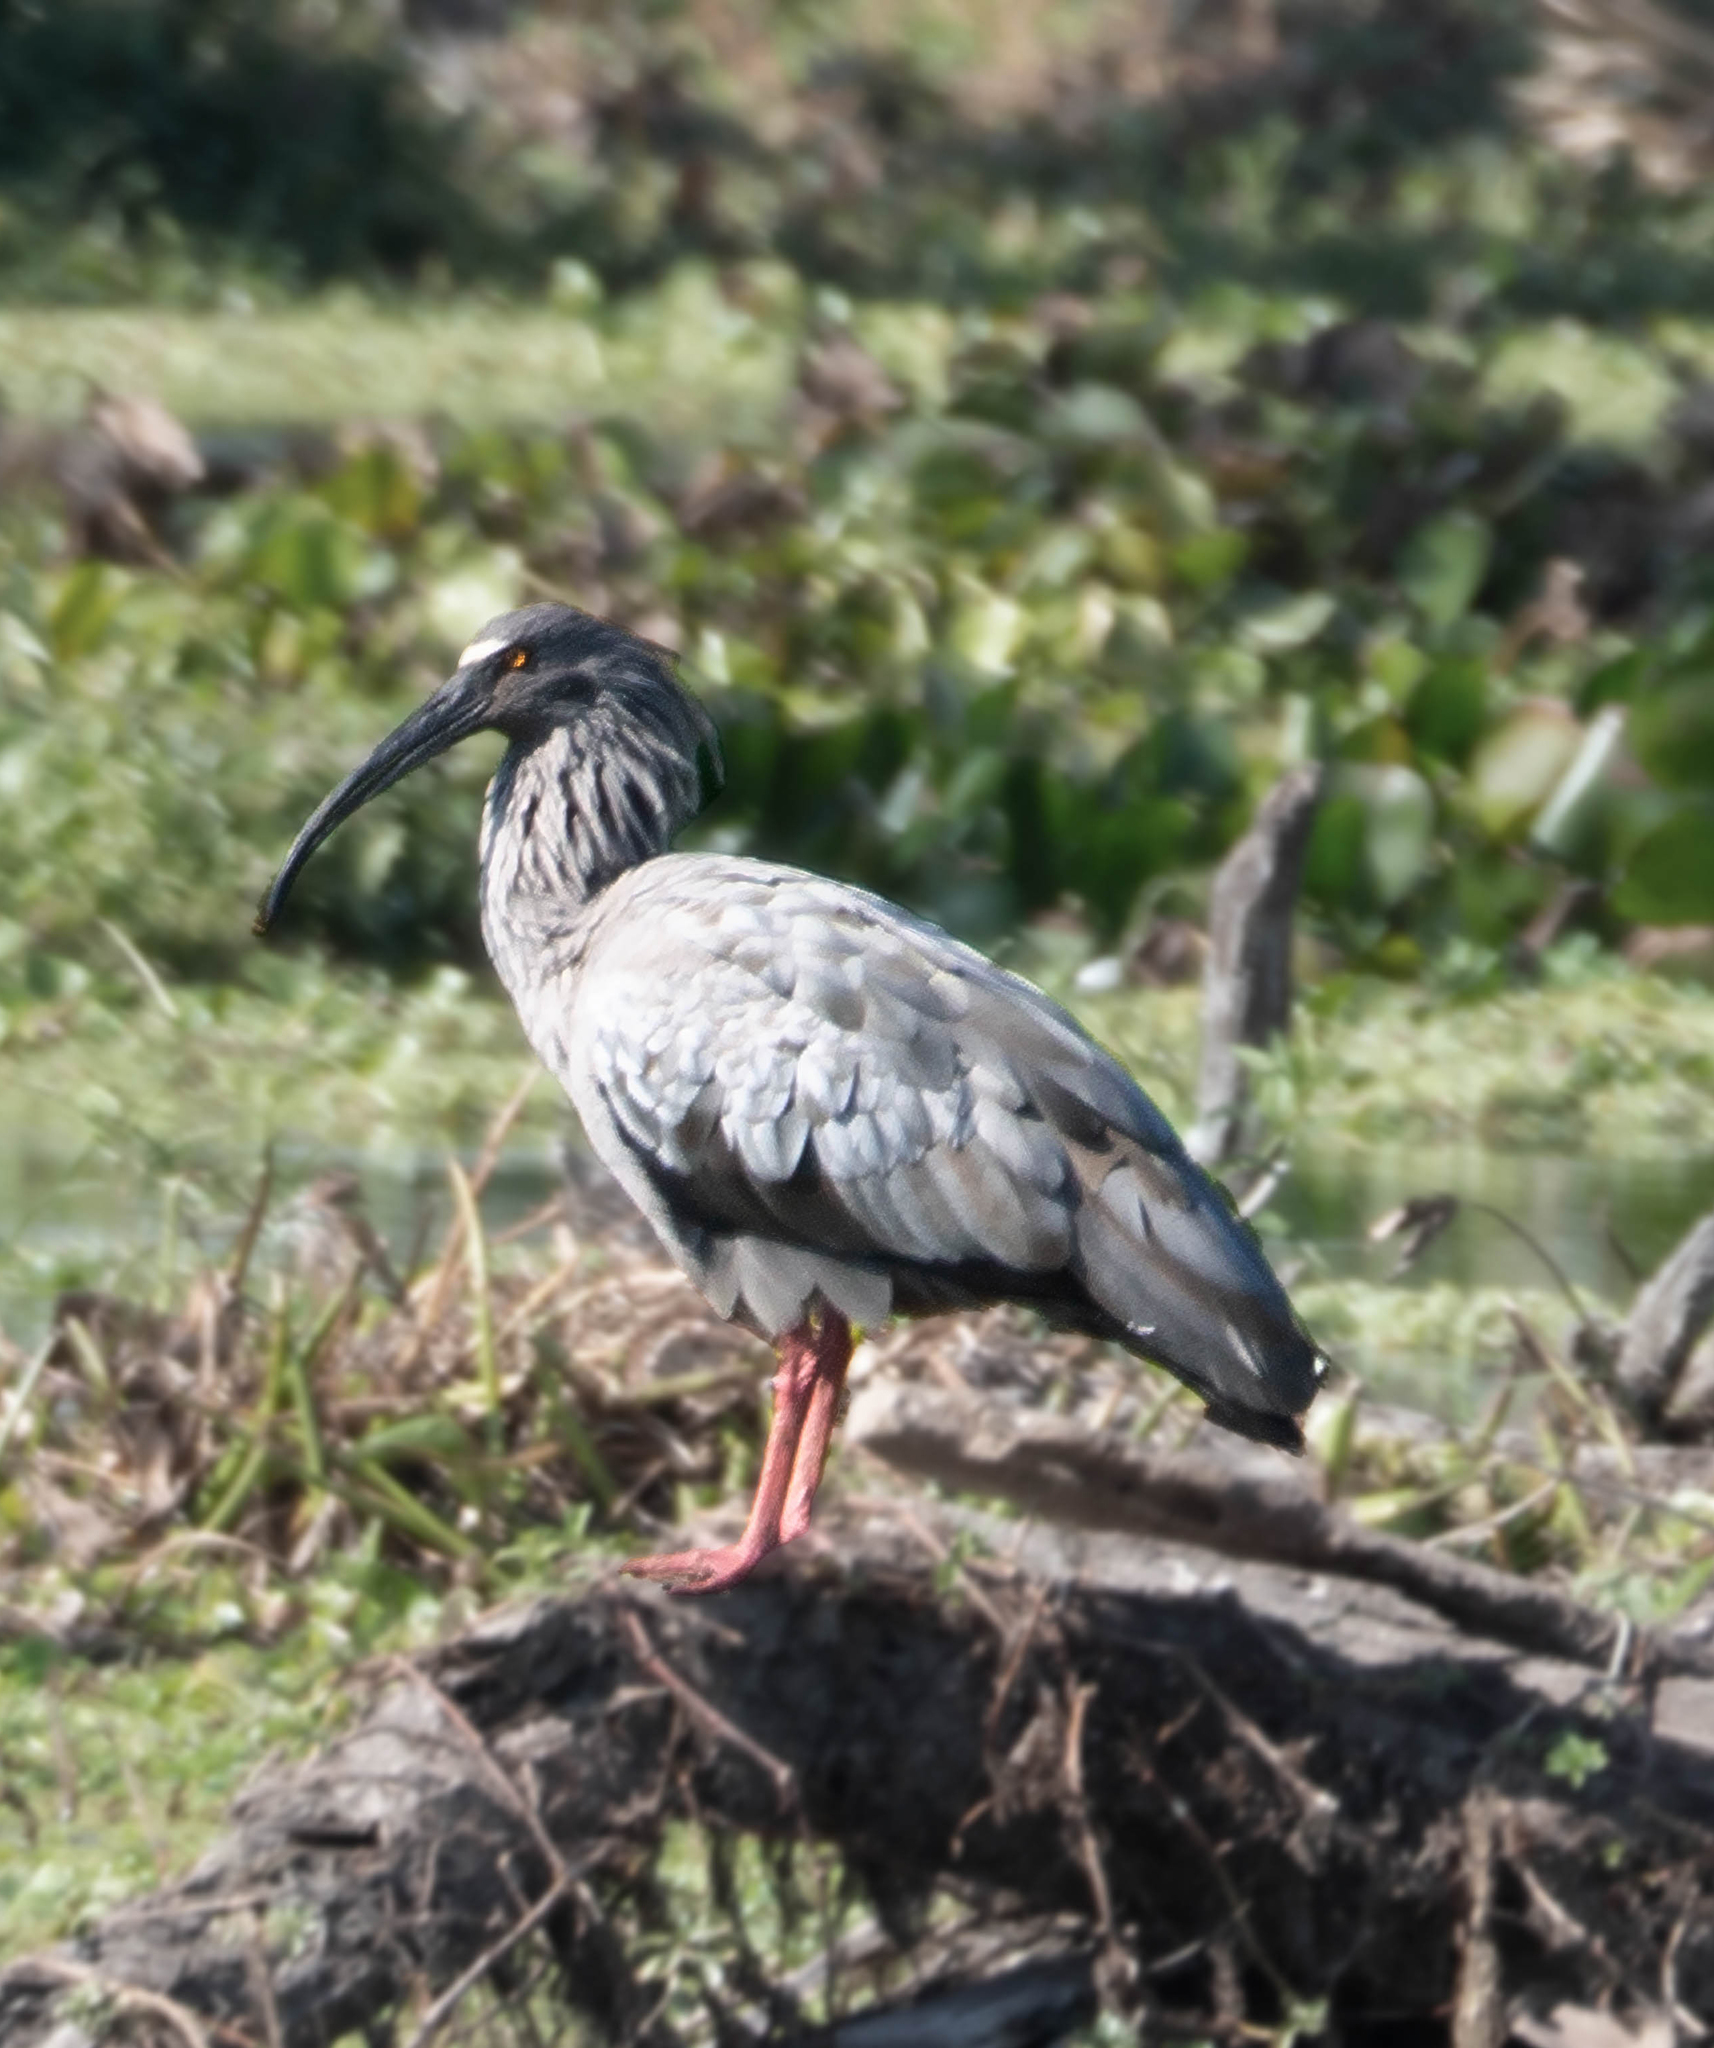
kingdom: Animalia
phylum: Chordata
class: Aves
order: Pelecaniformes
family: Threskiornithidae
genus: Theristicus
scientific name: Theristicus caerulescens
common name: Plumbeous ibis
